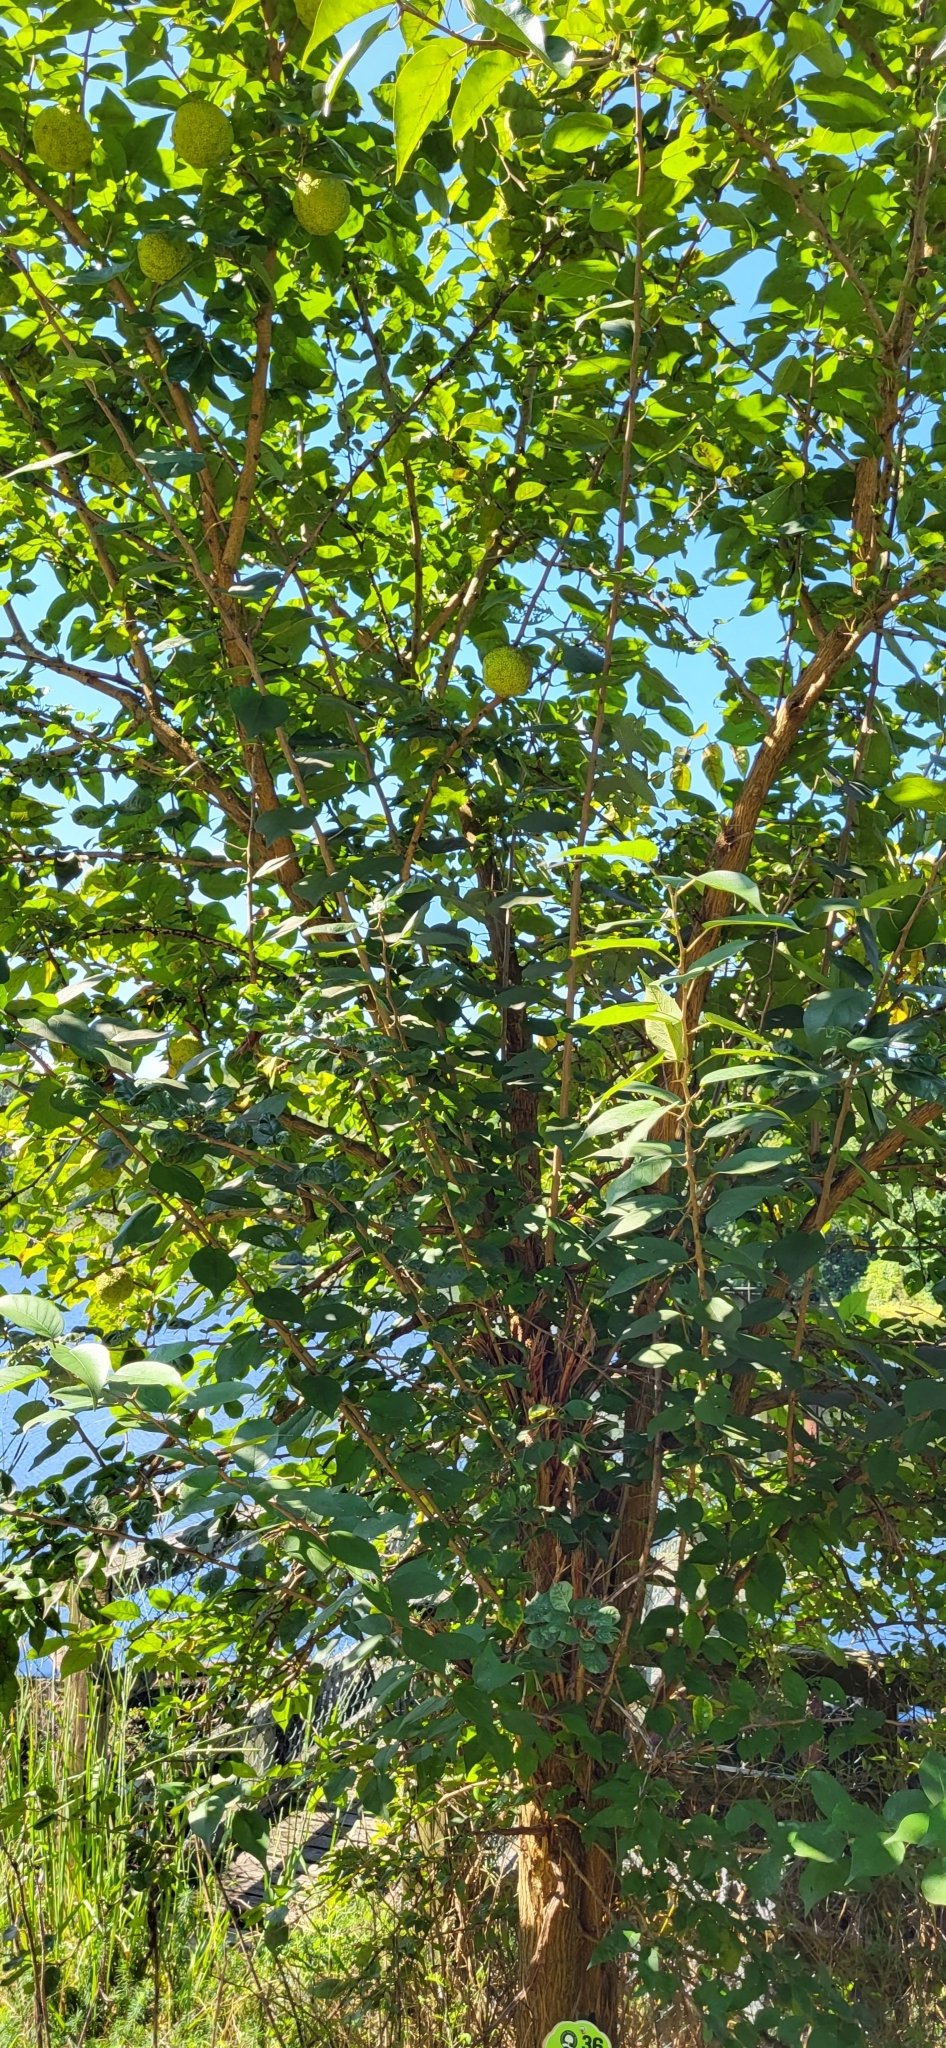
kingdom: Plantae
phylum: Tracheophyta
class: Magnoliopsida
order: Rosales
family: Moraceae
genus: Maclura
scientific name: Maclura pomifera
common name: Osage-orange
